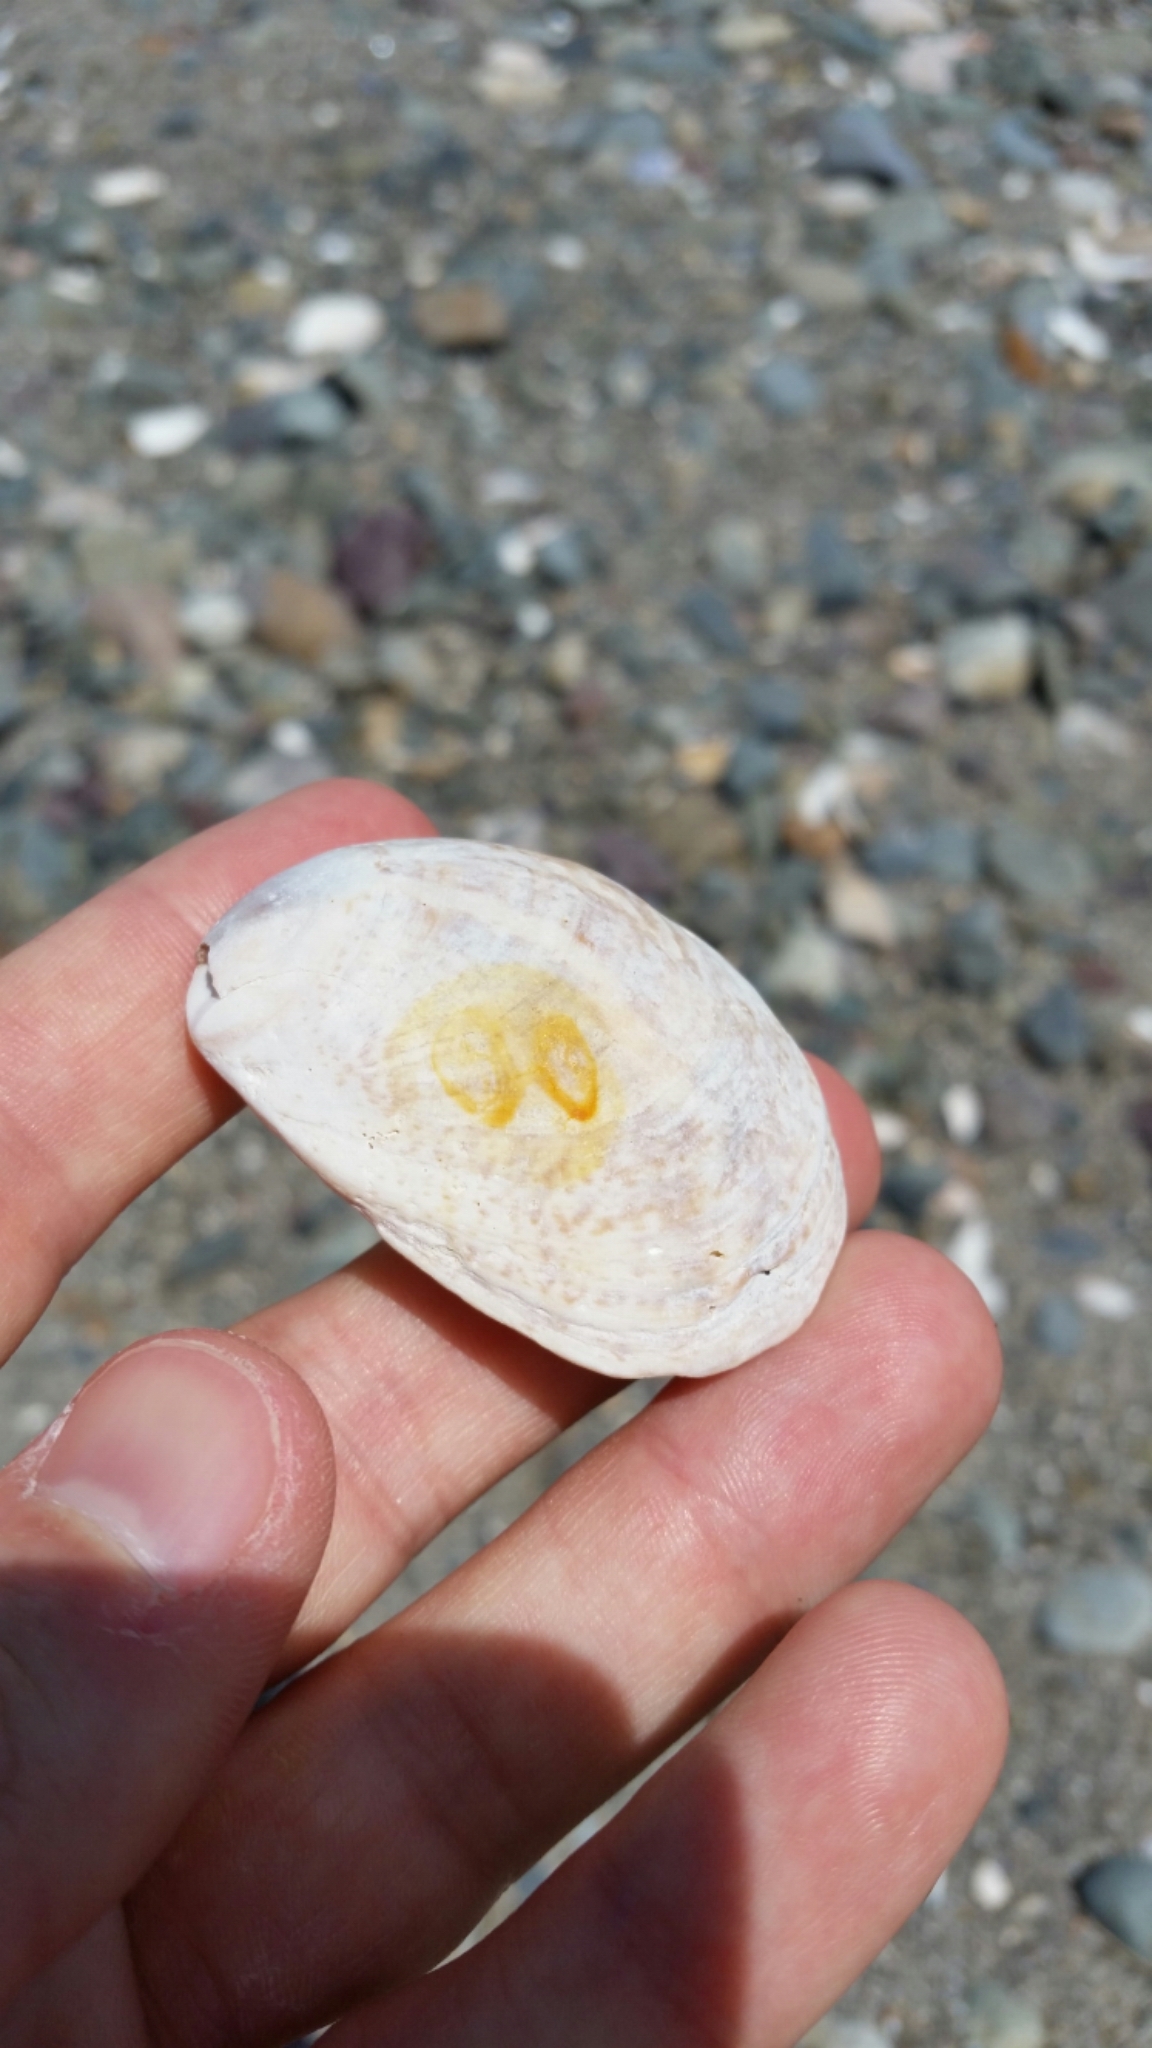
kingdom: Animalia
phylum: Mollusca
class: Gastropoda
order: Littorinimorpha
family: Calyptraeidae
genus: Crepidula
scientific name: Crepidula fornicata
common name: Slipper limpet
